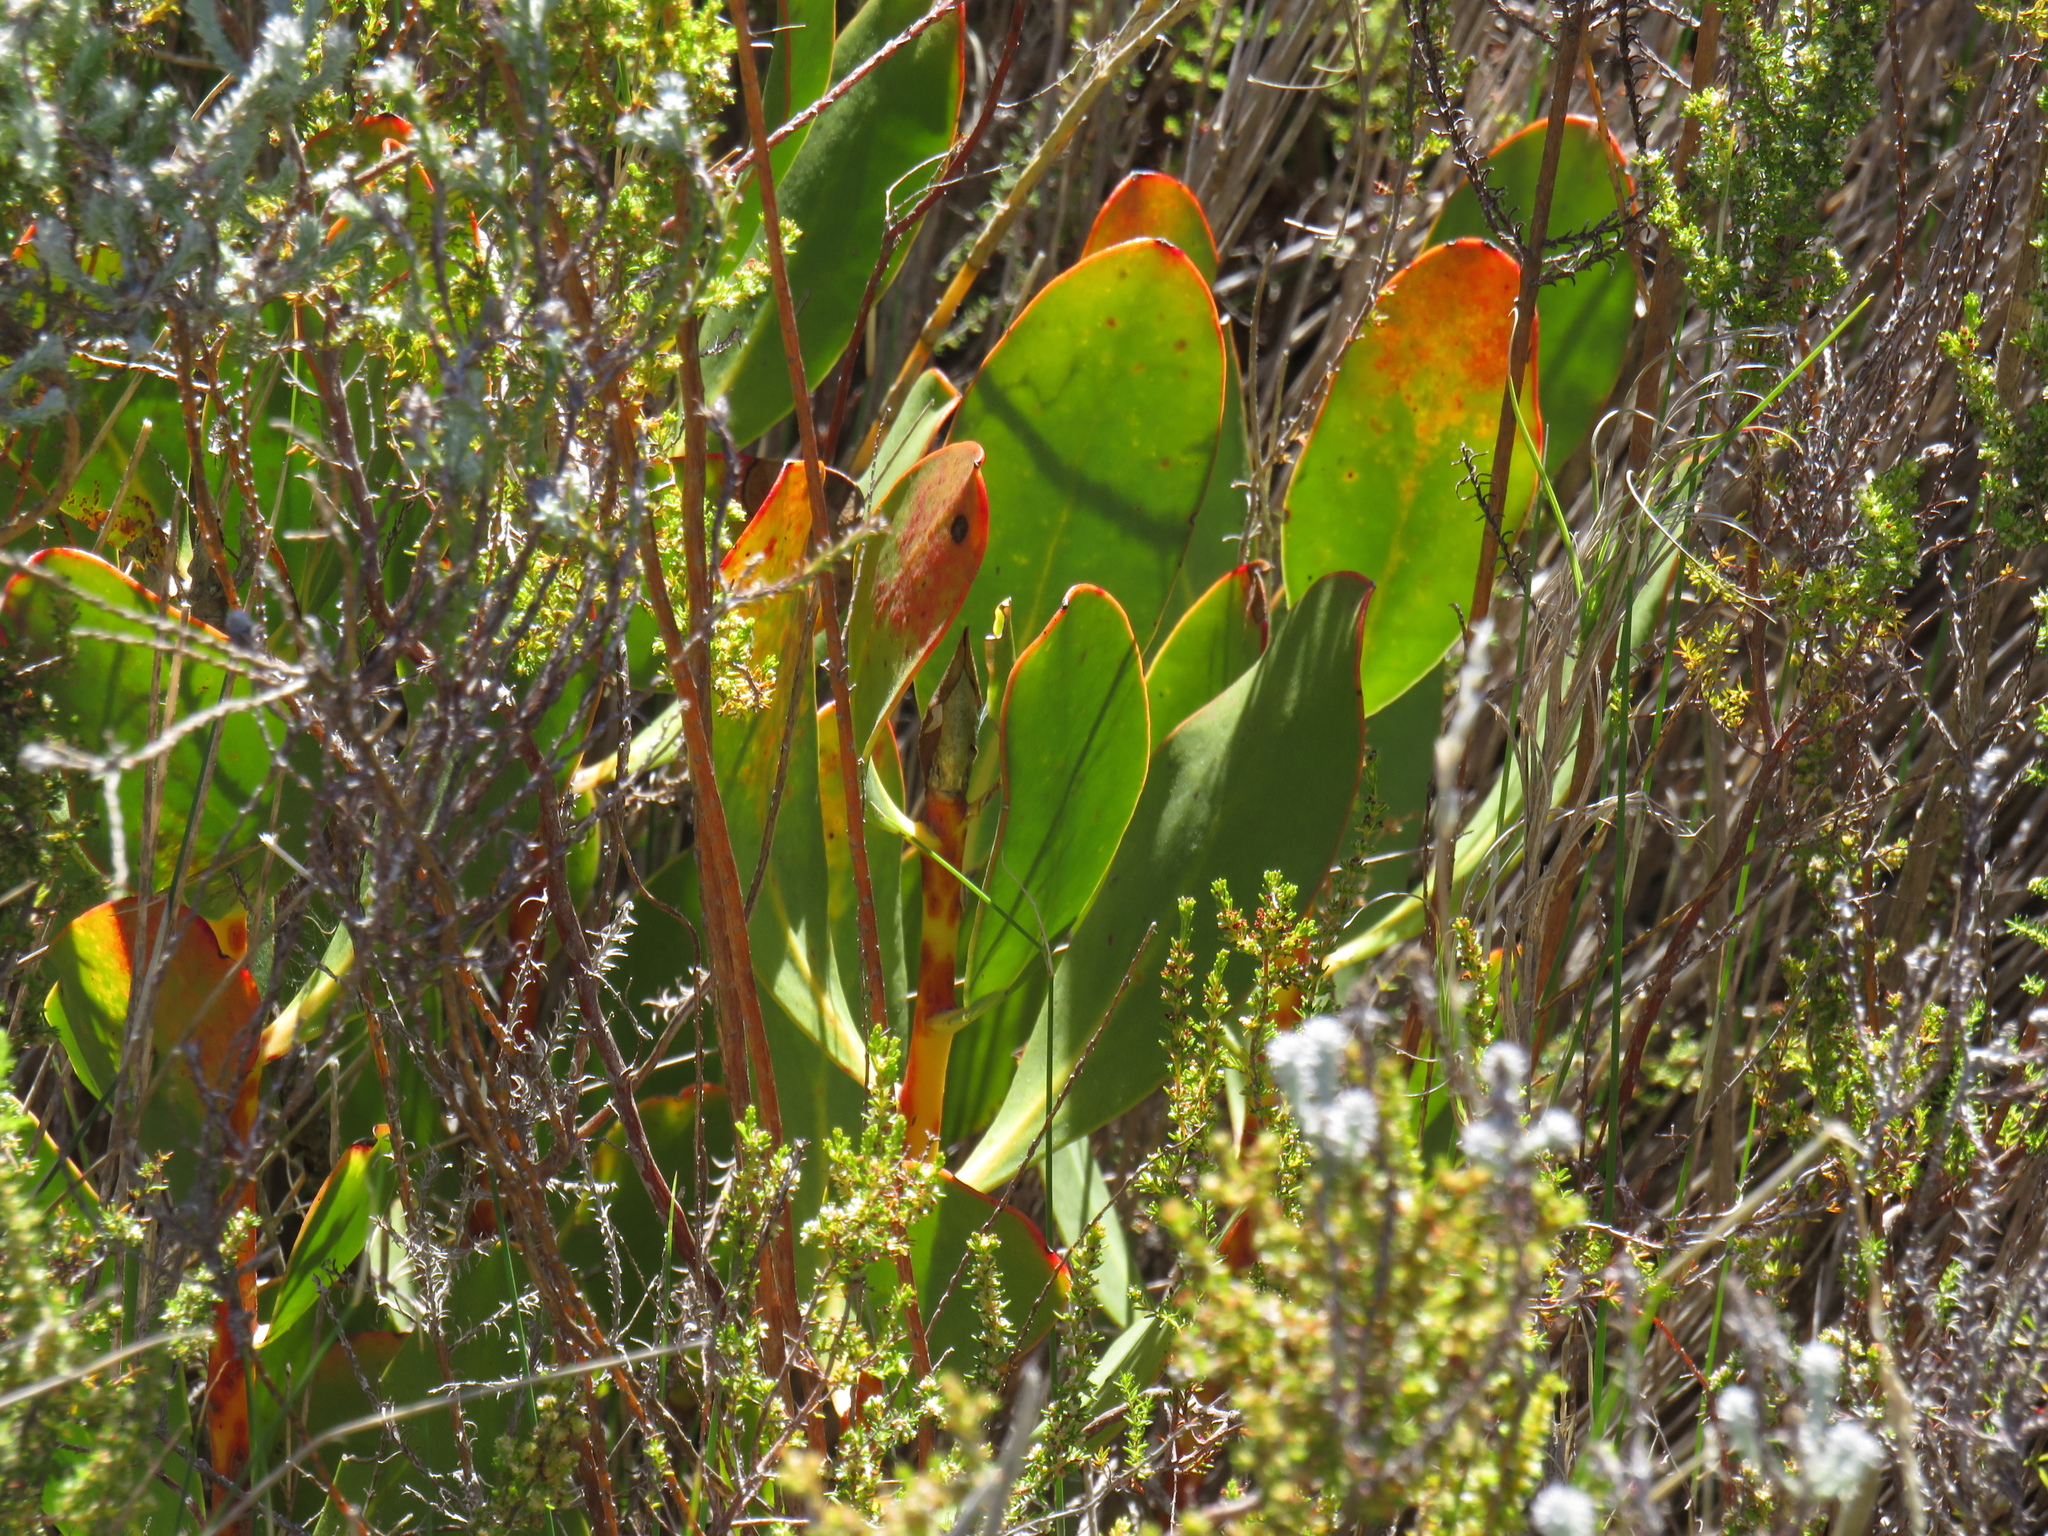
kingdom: Plantae
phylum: Tracheophyta
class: Magnoliopsida
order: Proteales
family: Proteaceae
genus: Protea
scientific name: Protea speciosa
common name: Brown-beard sugarbush
